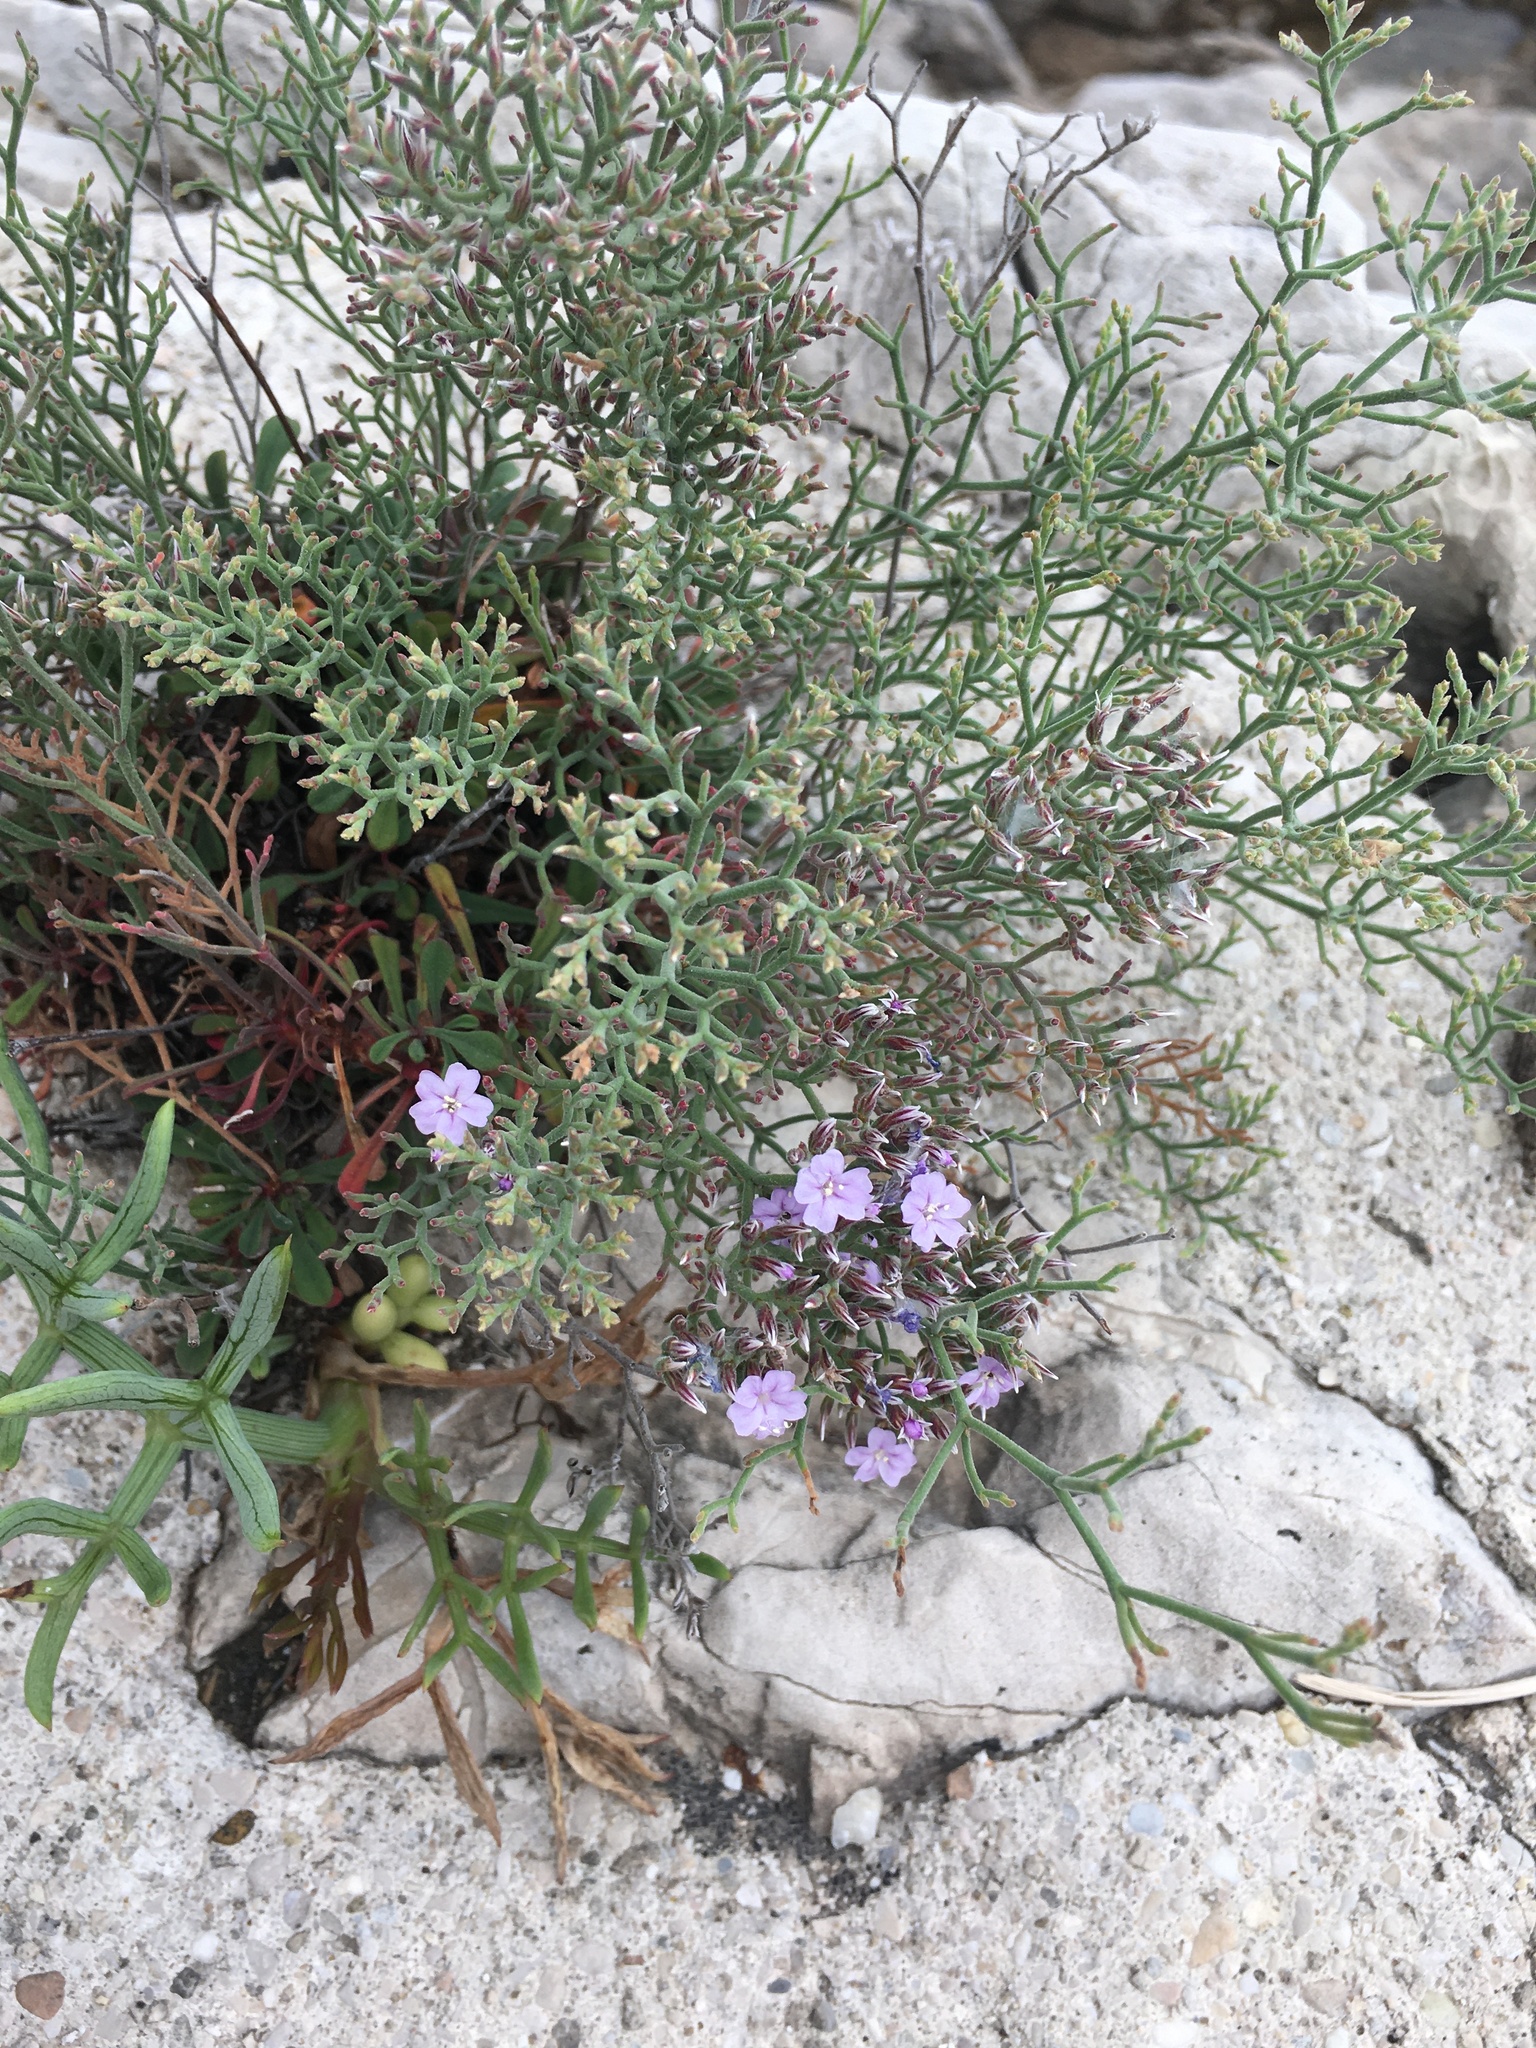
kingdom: Plantae
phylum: Tracheophyta
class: Magnoliopsida
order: Caryophyllales
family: Plumbaginaceae
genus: Limonium
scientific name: Limonium cordatum
